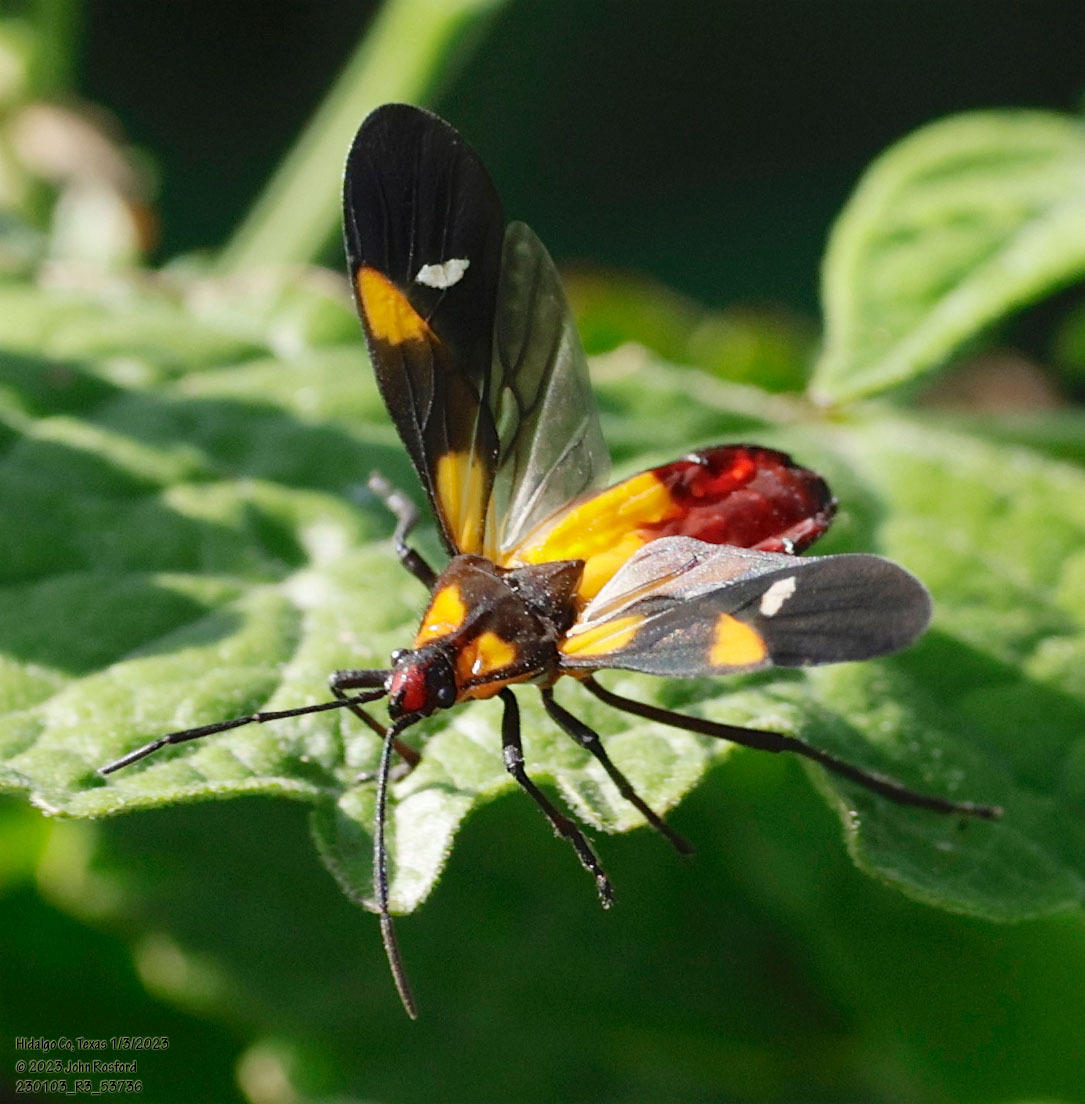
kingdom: Animalia
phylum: Arthropoda
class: Insecta
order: Hemiptera
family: Lygaeidae
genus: Oncopeltus
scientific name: Oncopeltus sexmaculatus
